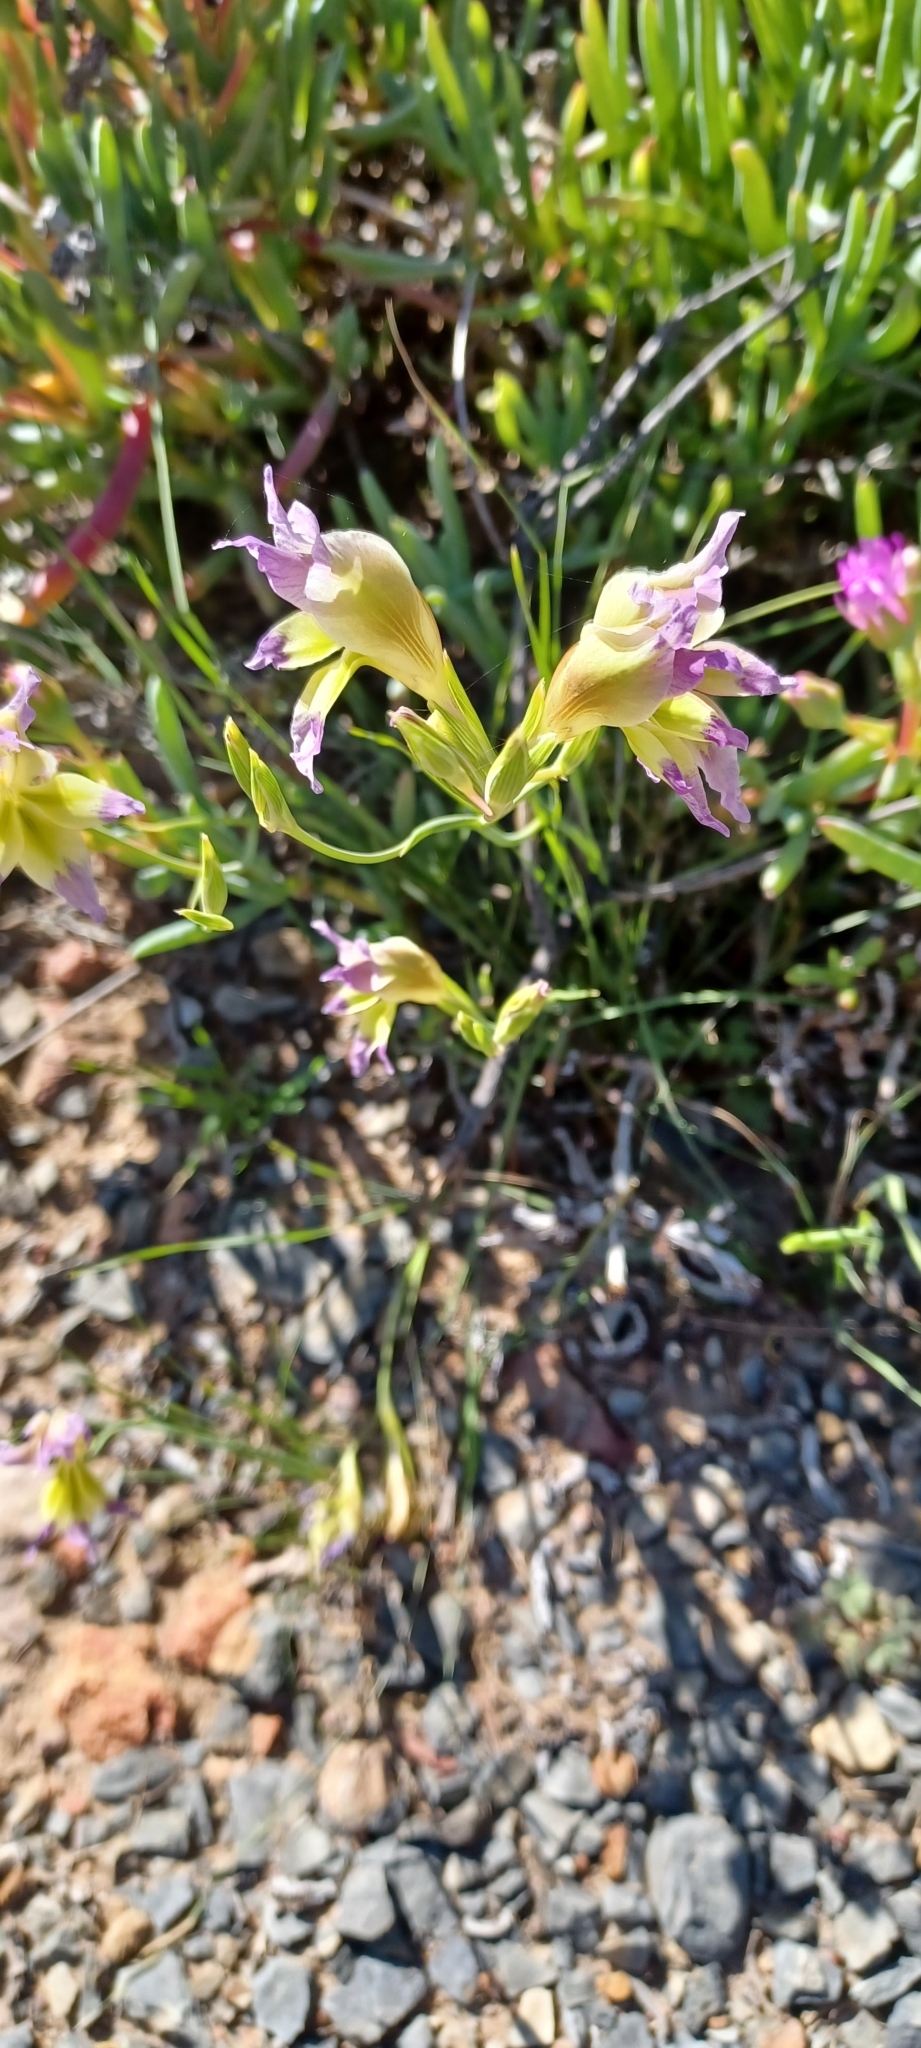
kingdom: Plantae
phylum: Tracheophyta
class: Liliopsida
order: Asparagales
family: Iridaceae
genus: Gladiolus
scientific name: Gladiolus venustus
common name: Purple kalkoentjie
